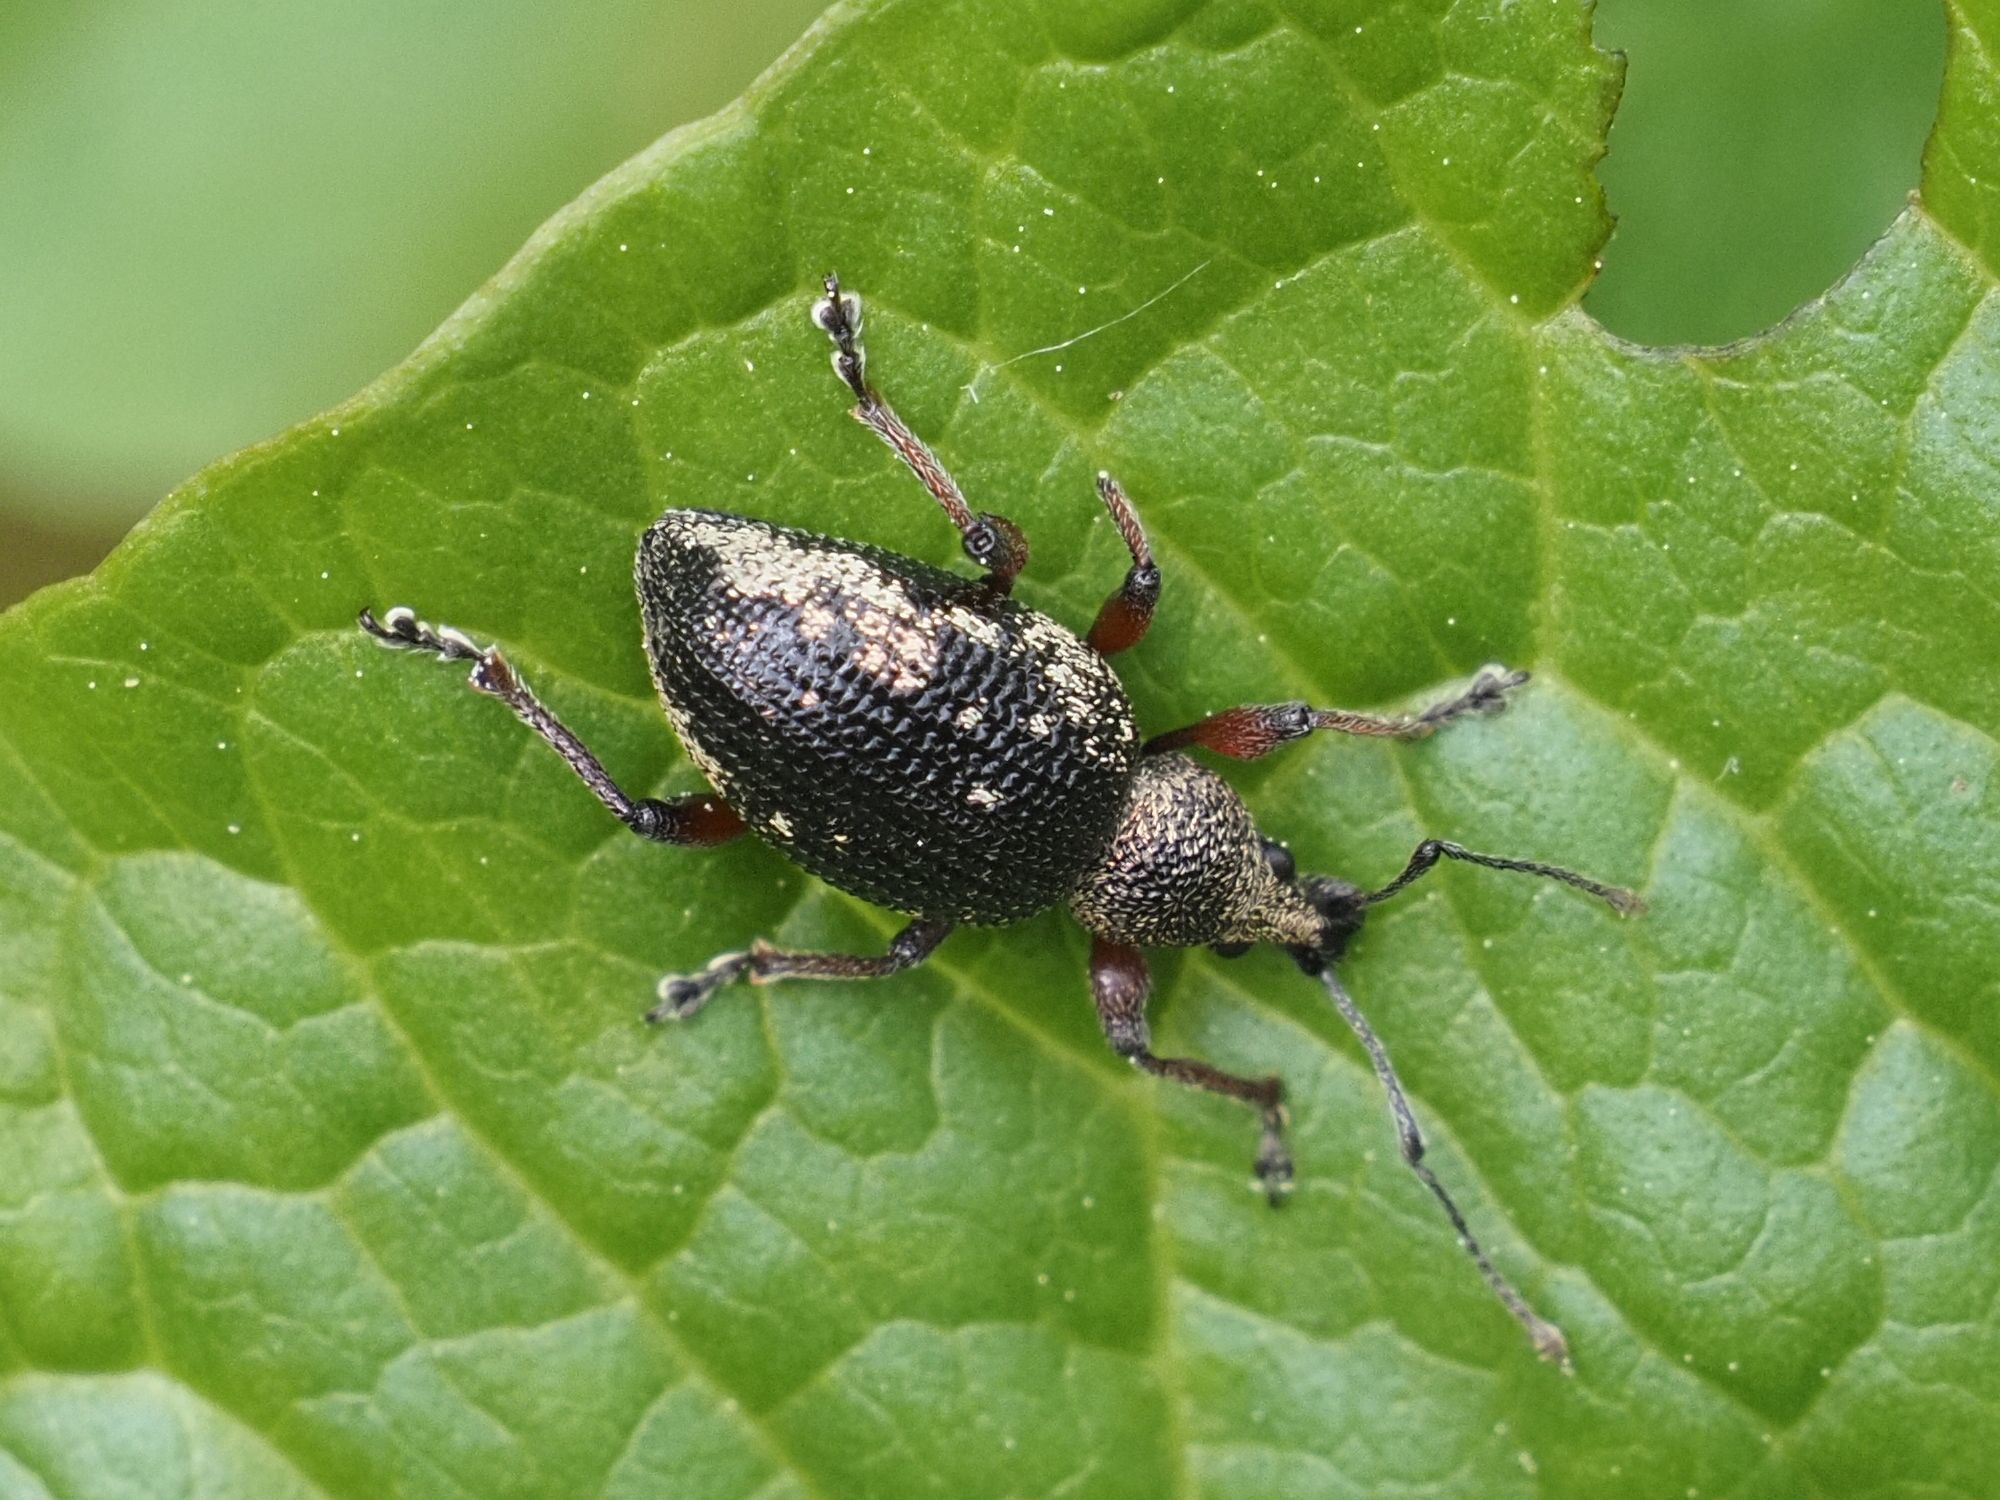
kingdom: Animalia
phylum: Arthropoda
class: Insecta
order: Coleoptera
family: Curculionidae
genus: Otiorhynchus
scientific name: Otiorhynchus lepidopterus
